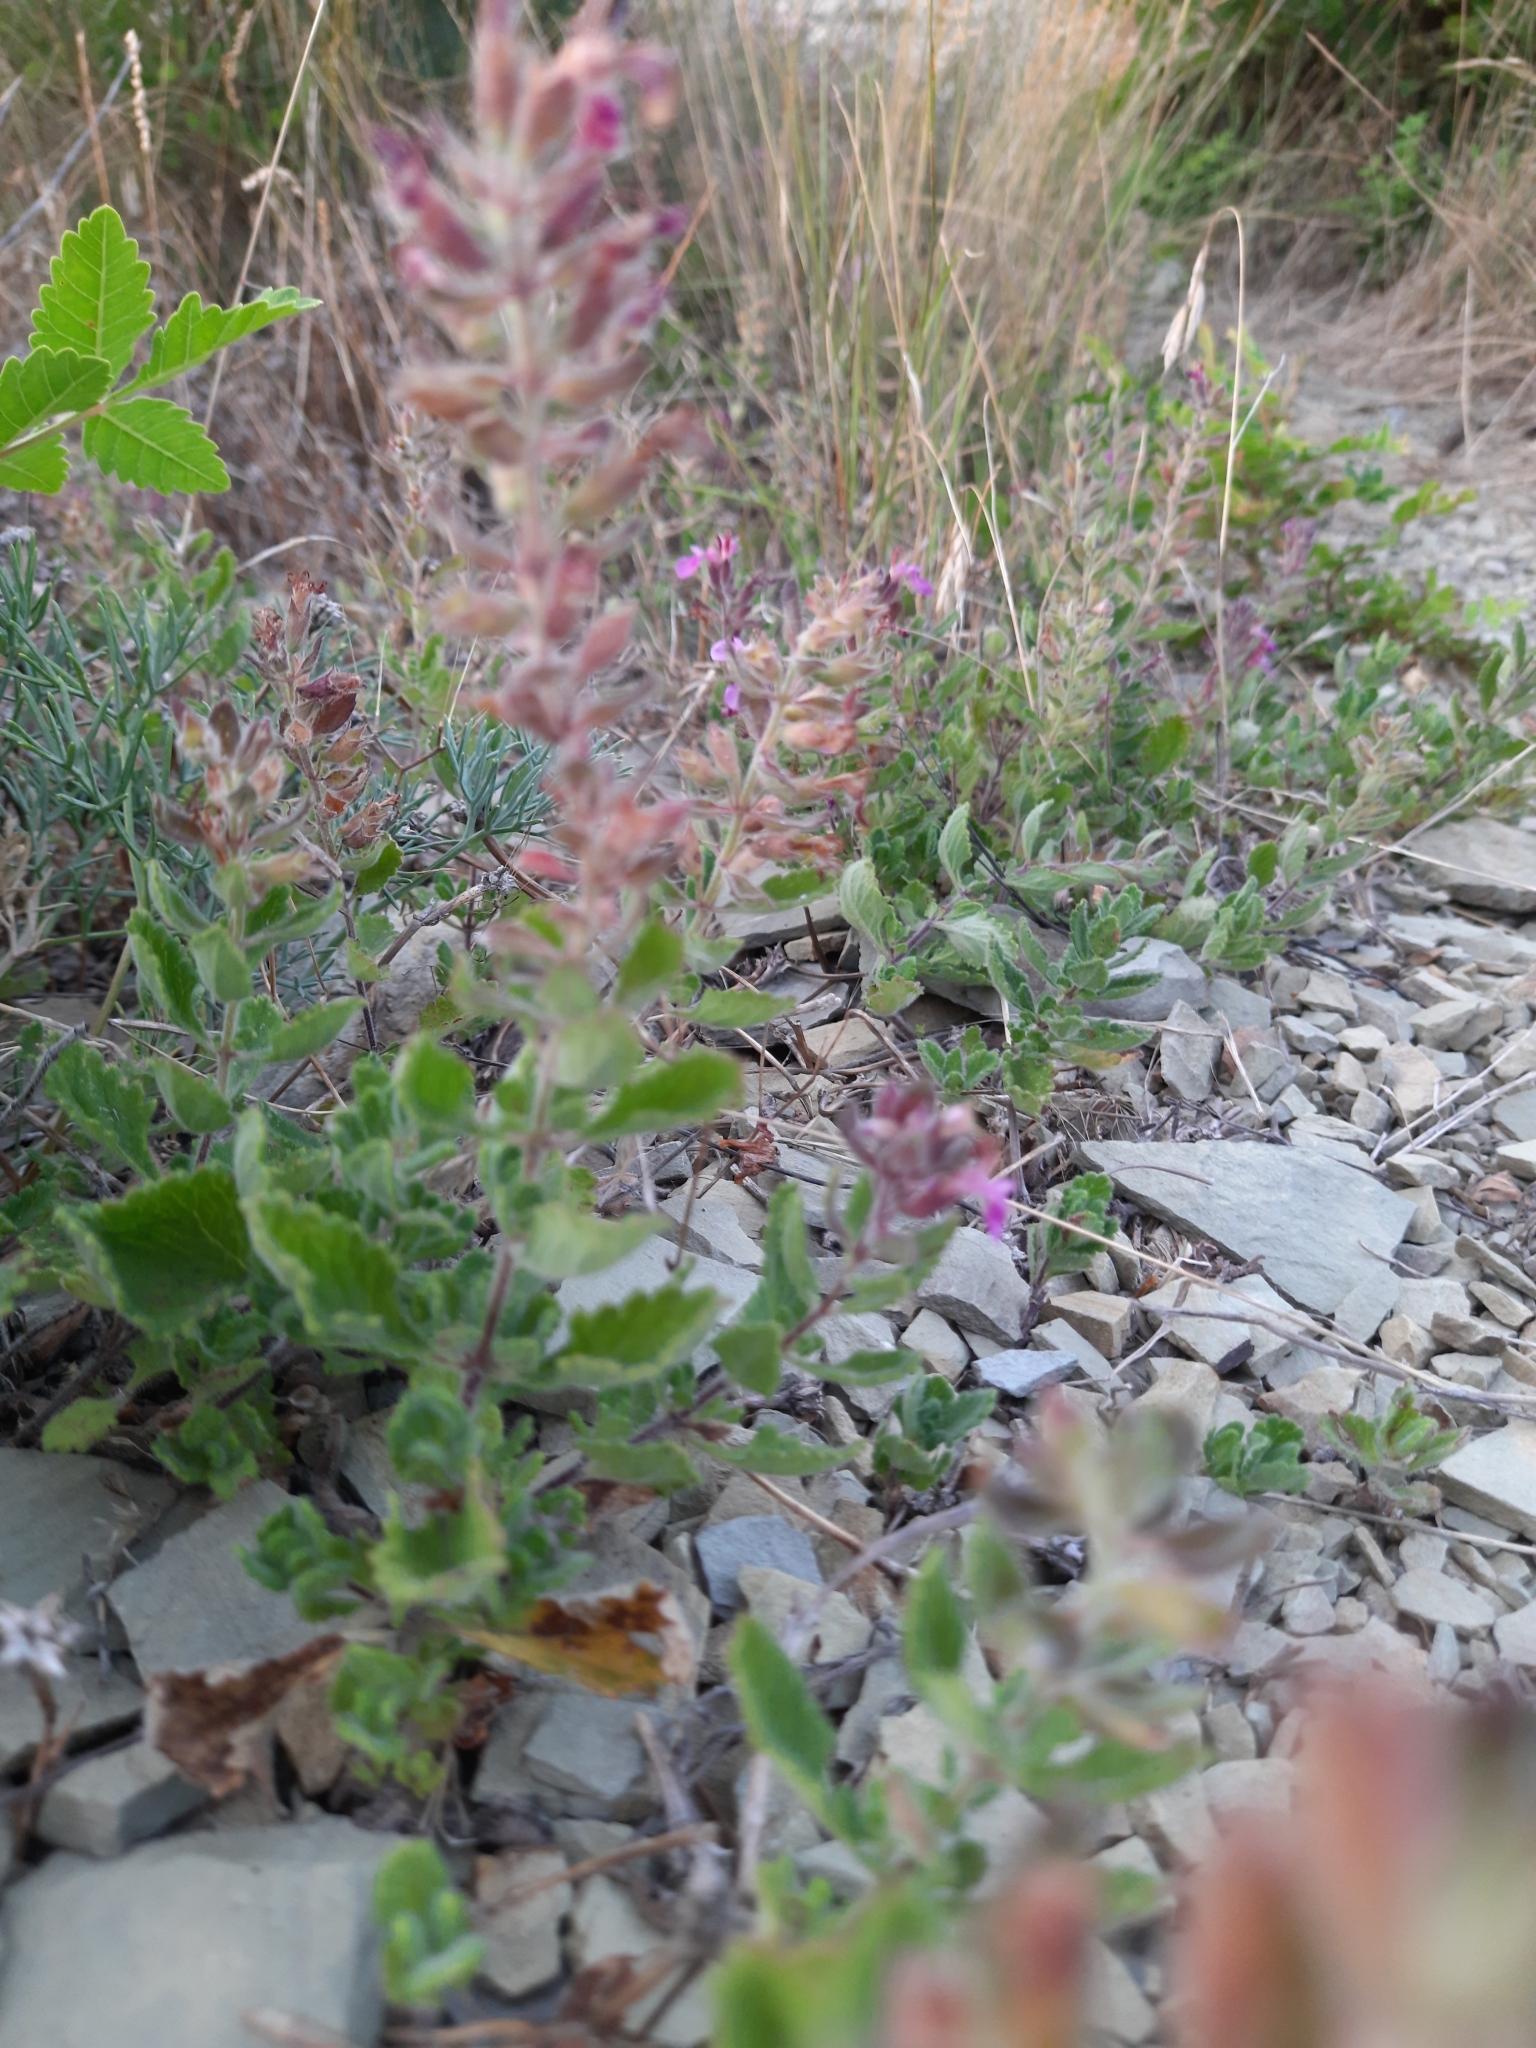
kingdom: Plantae
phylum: Tracheophyta
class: Magnoliopsida
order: Lamiales
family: Lamiaceae
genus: Teucrium
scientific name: Teucrium chamaedrys
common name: Wall germander
